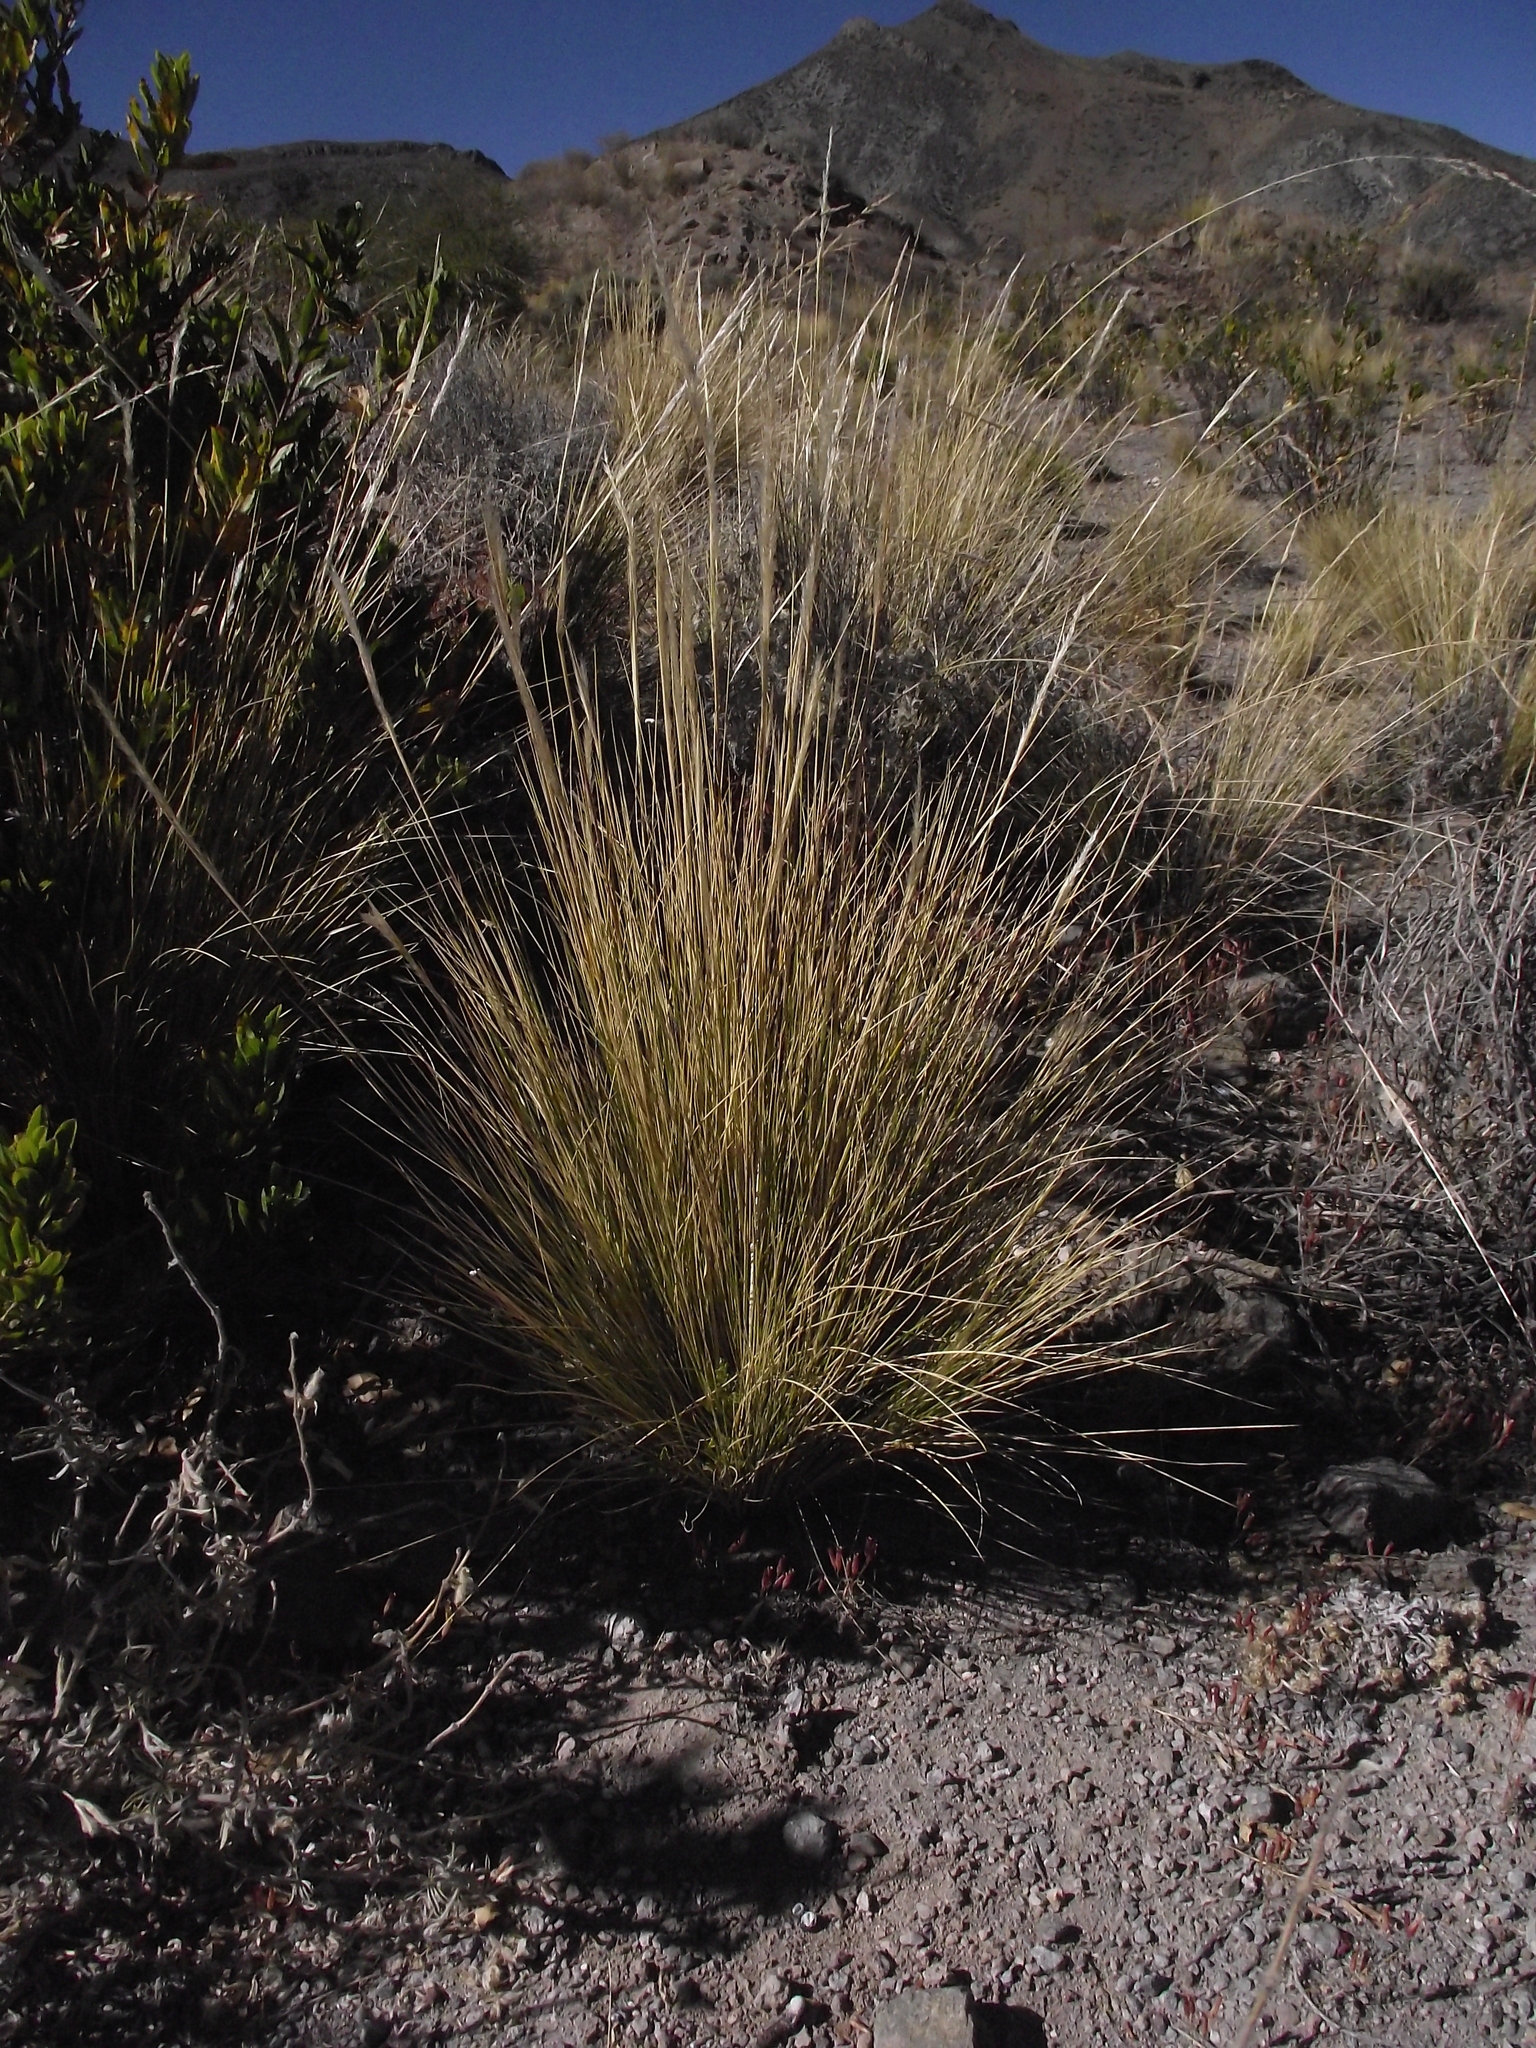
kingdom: Plantae
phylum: Tracheophyta
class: Liliopsida
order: Poales
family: Poaceae
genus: Jarava
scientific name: Jarava leptostachya
